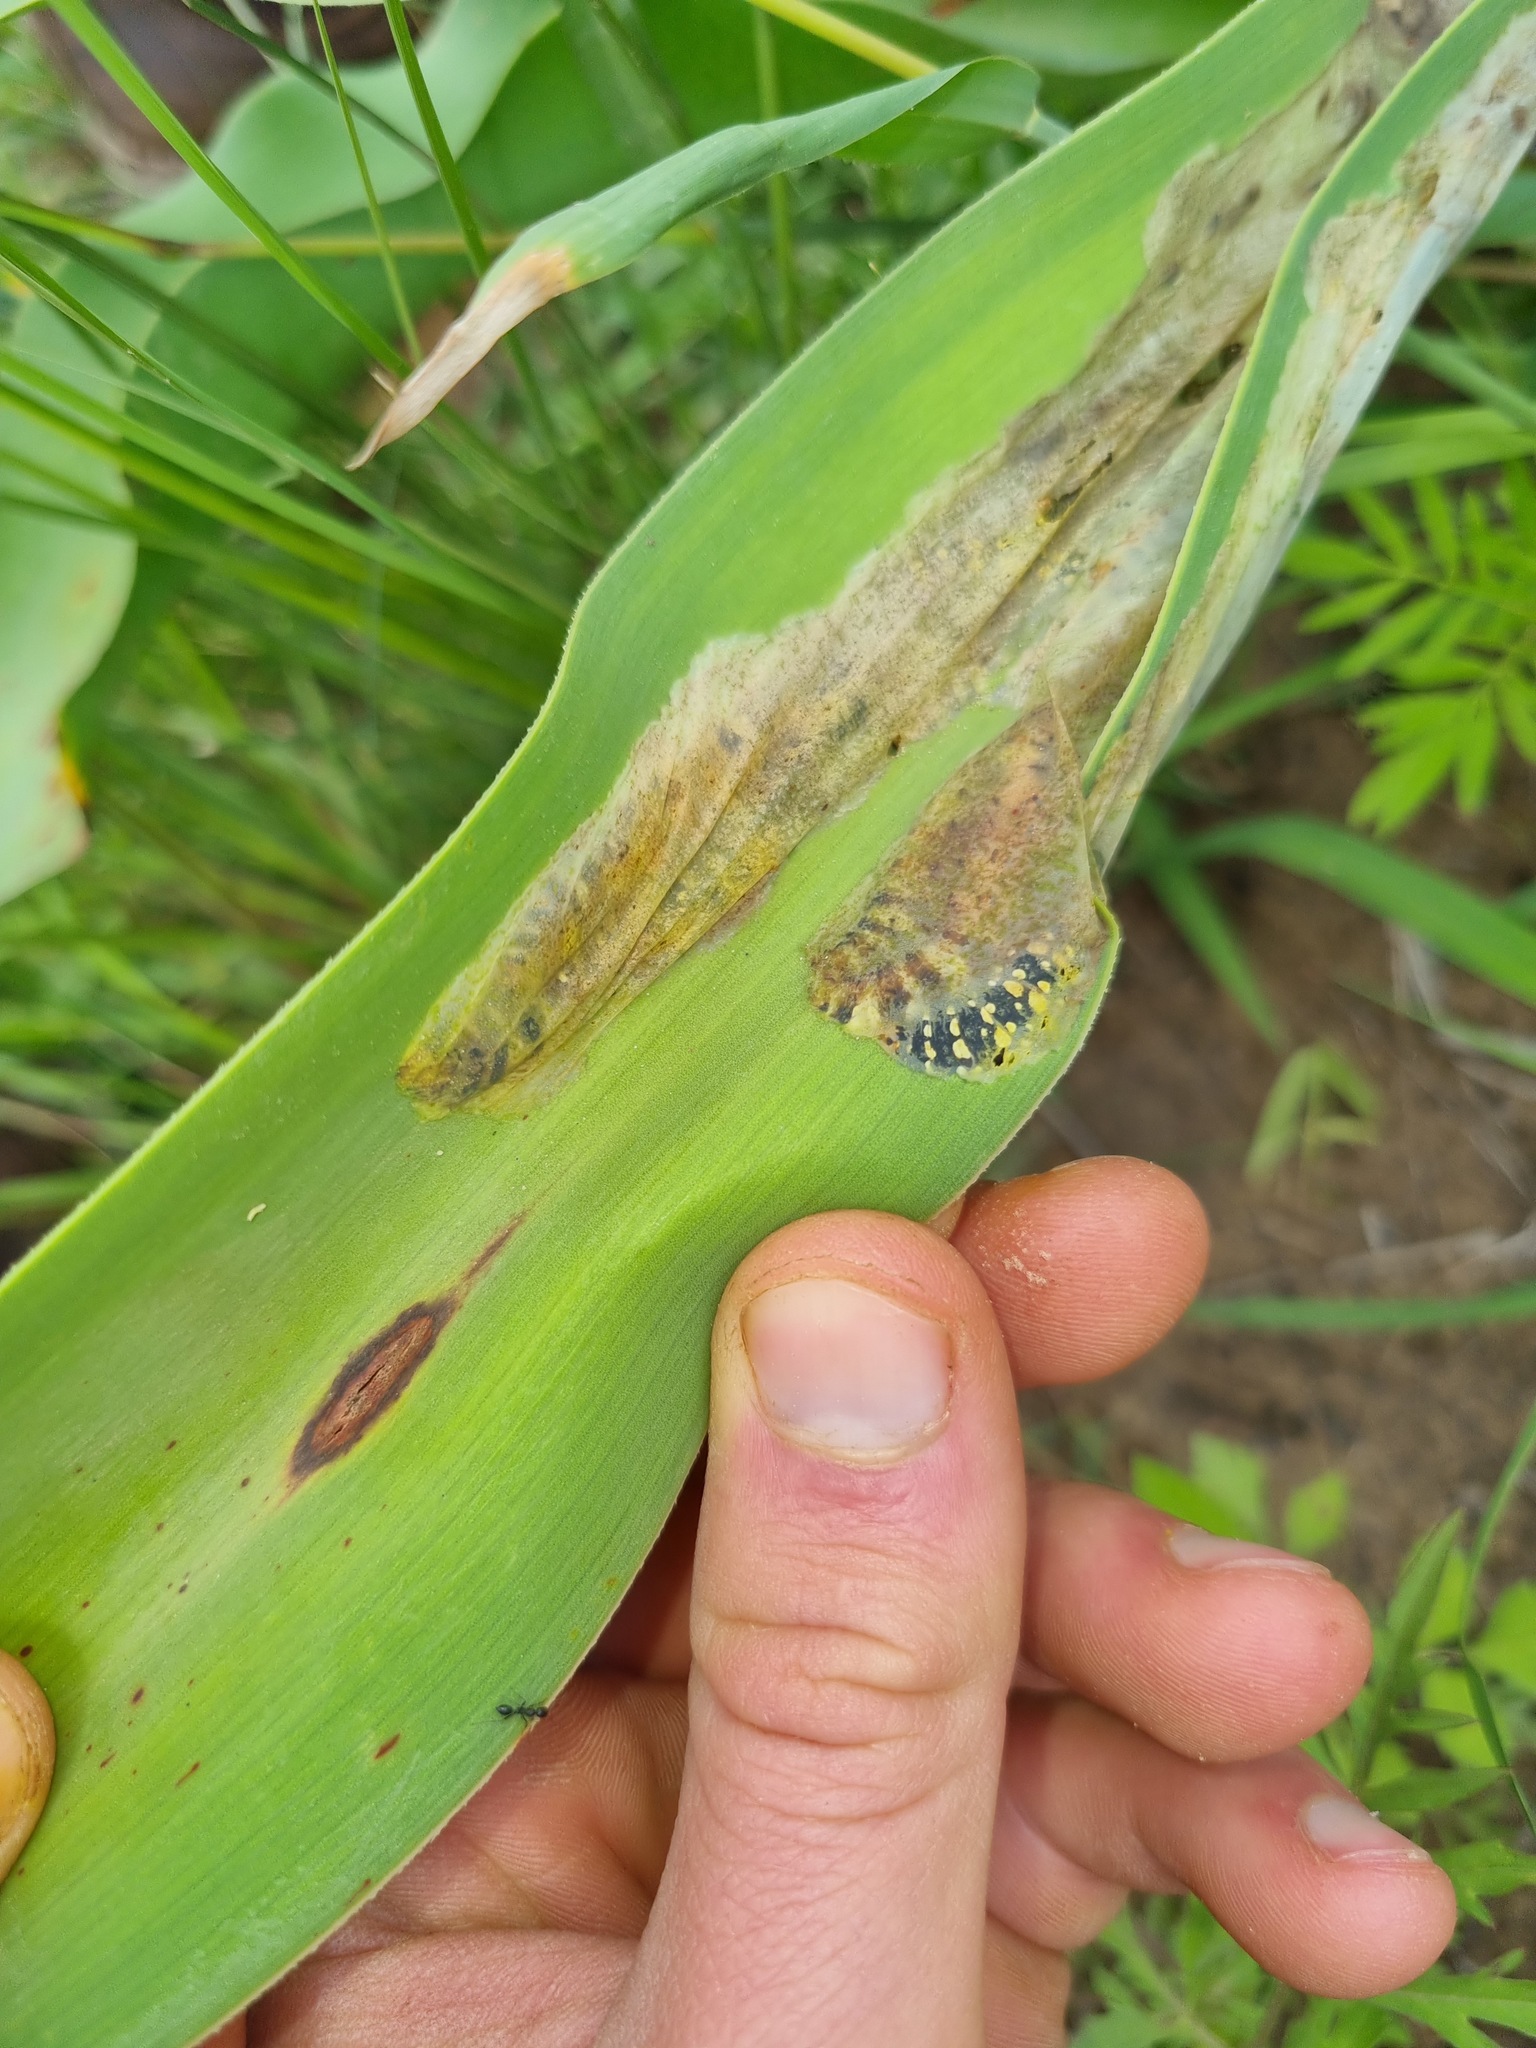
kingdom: Animalia
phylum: Arthropoda
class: Insecta
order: Lepidoptera
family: Noctuidae
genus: Brithys
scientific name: Brithys crini
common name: Kew arches
